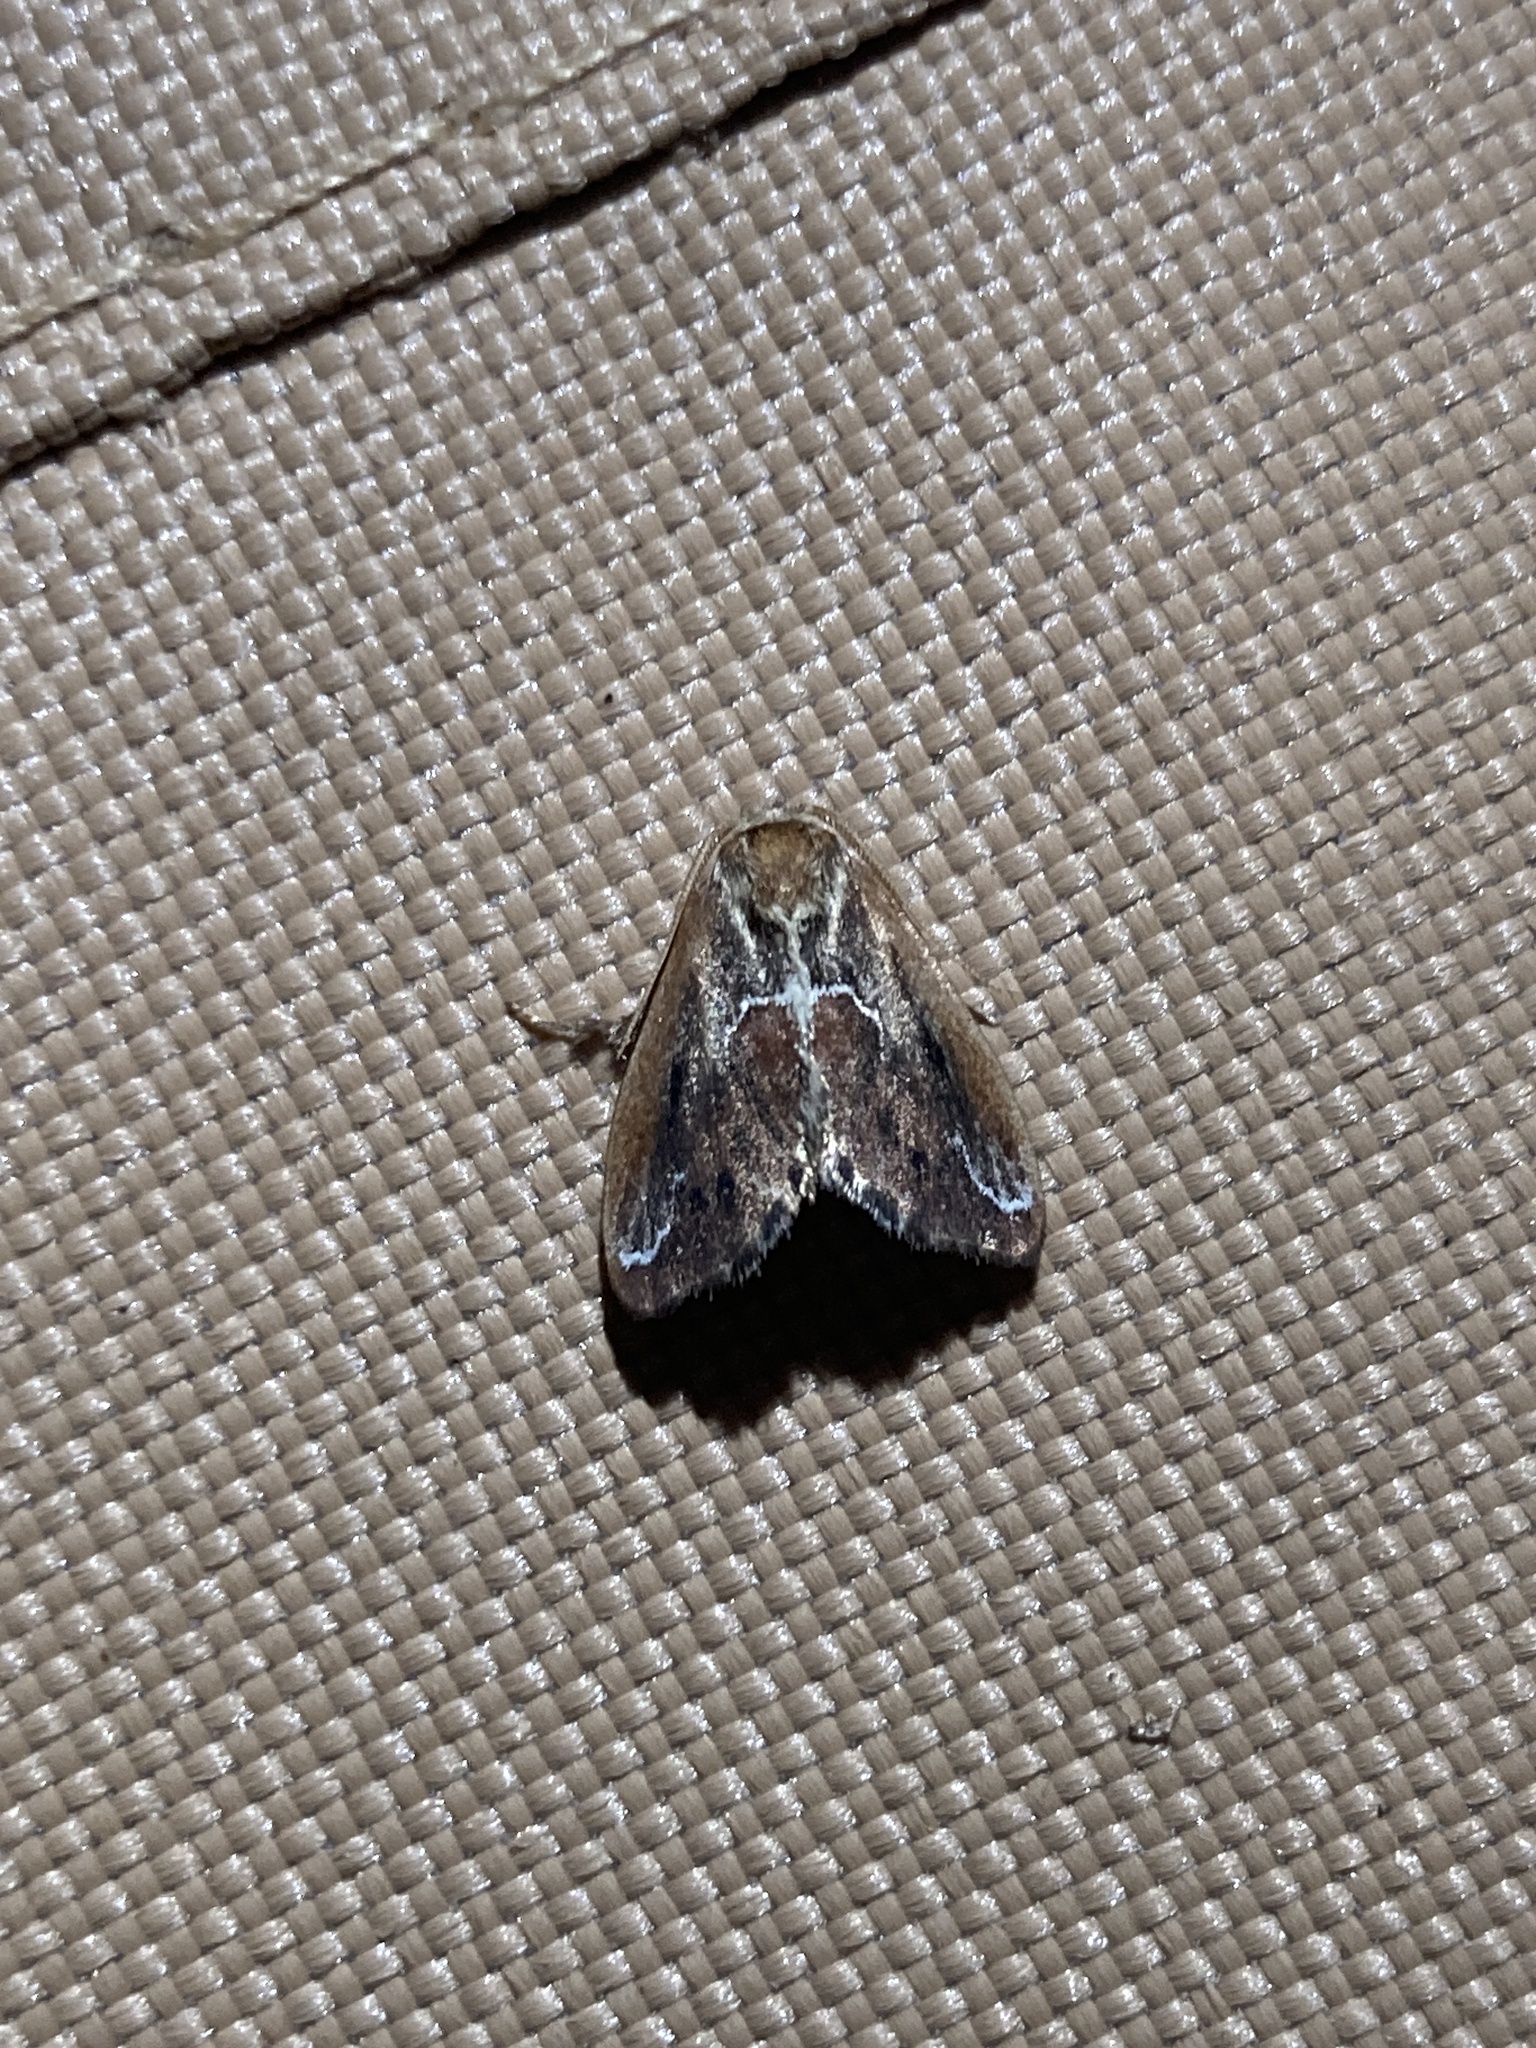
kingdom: Animalia
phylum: Arthropoda
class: Insecta
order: Lepidoptera
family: Limacodidae
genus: Adoneta
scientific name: Adoneta spinuloides
